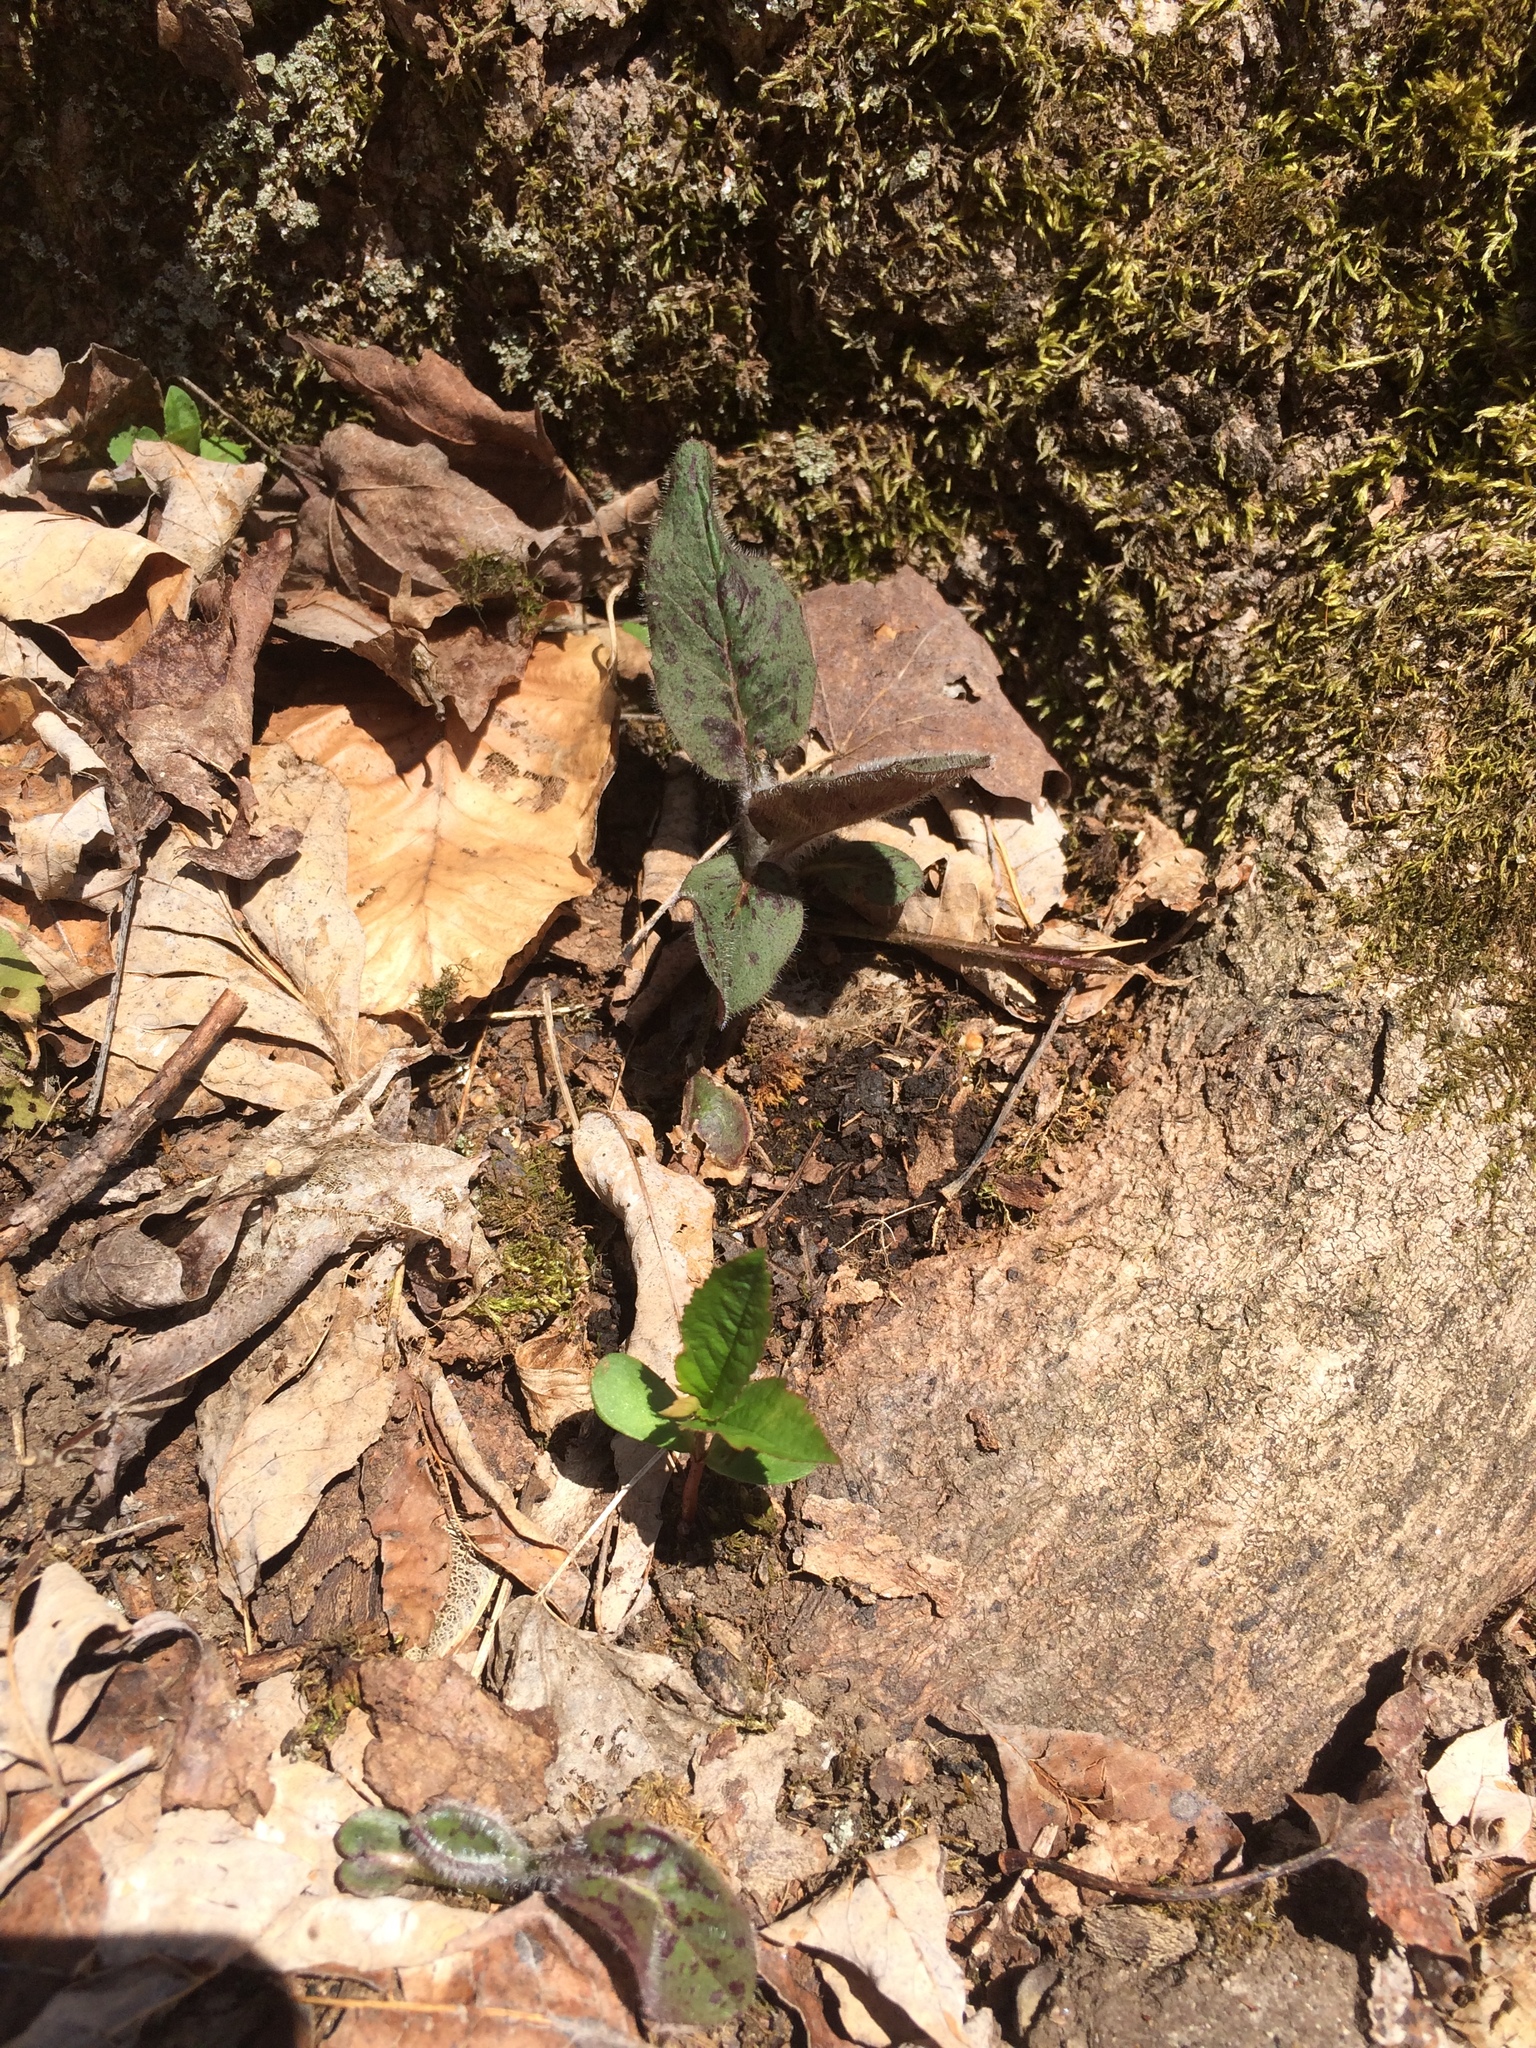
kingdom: Plantae
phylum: Tracheophyta
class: Magnoliopsida
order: Asterales
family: Asteraceae
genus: Hieracium
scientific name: Hieracium maculatum
